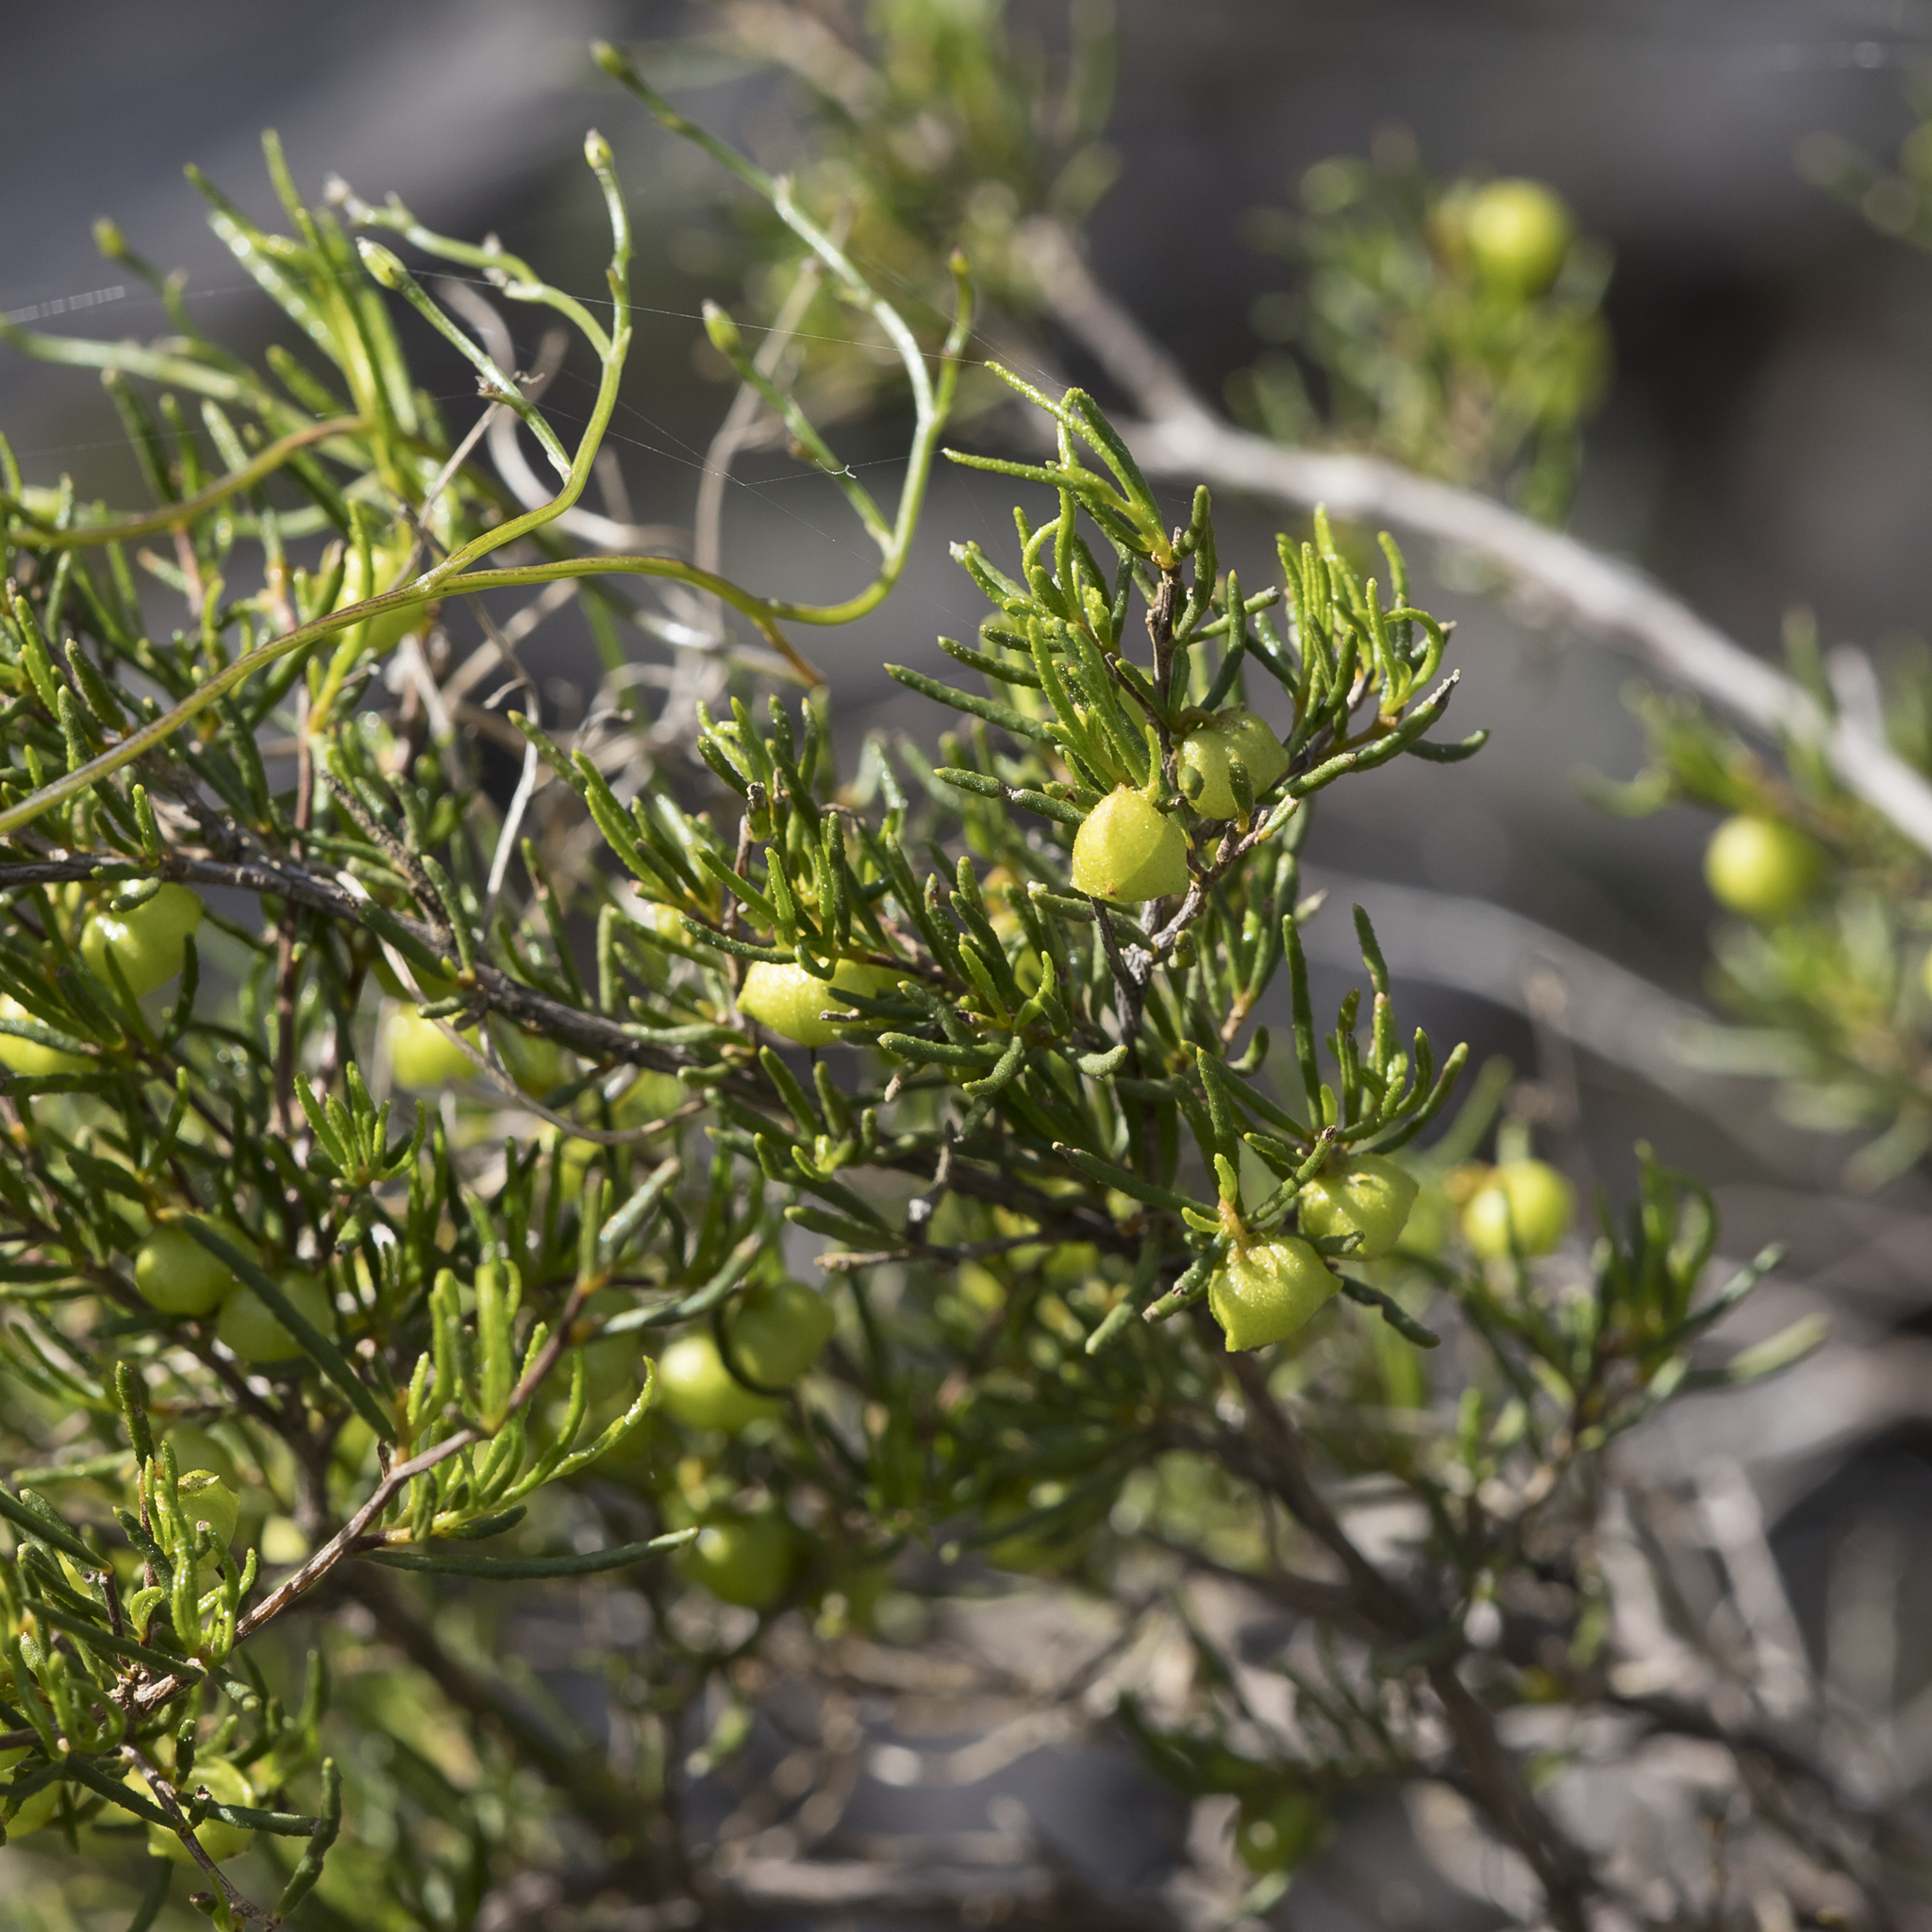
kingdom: Plantae
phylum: Tracheophyta
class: Magnoliopsida
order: Sapindales
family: Sapindaceae
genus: Dodonaea
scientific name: Dodonaea hexandra
